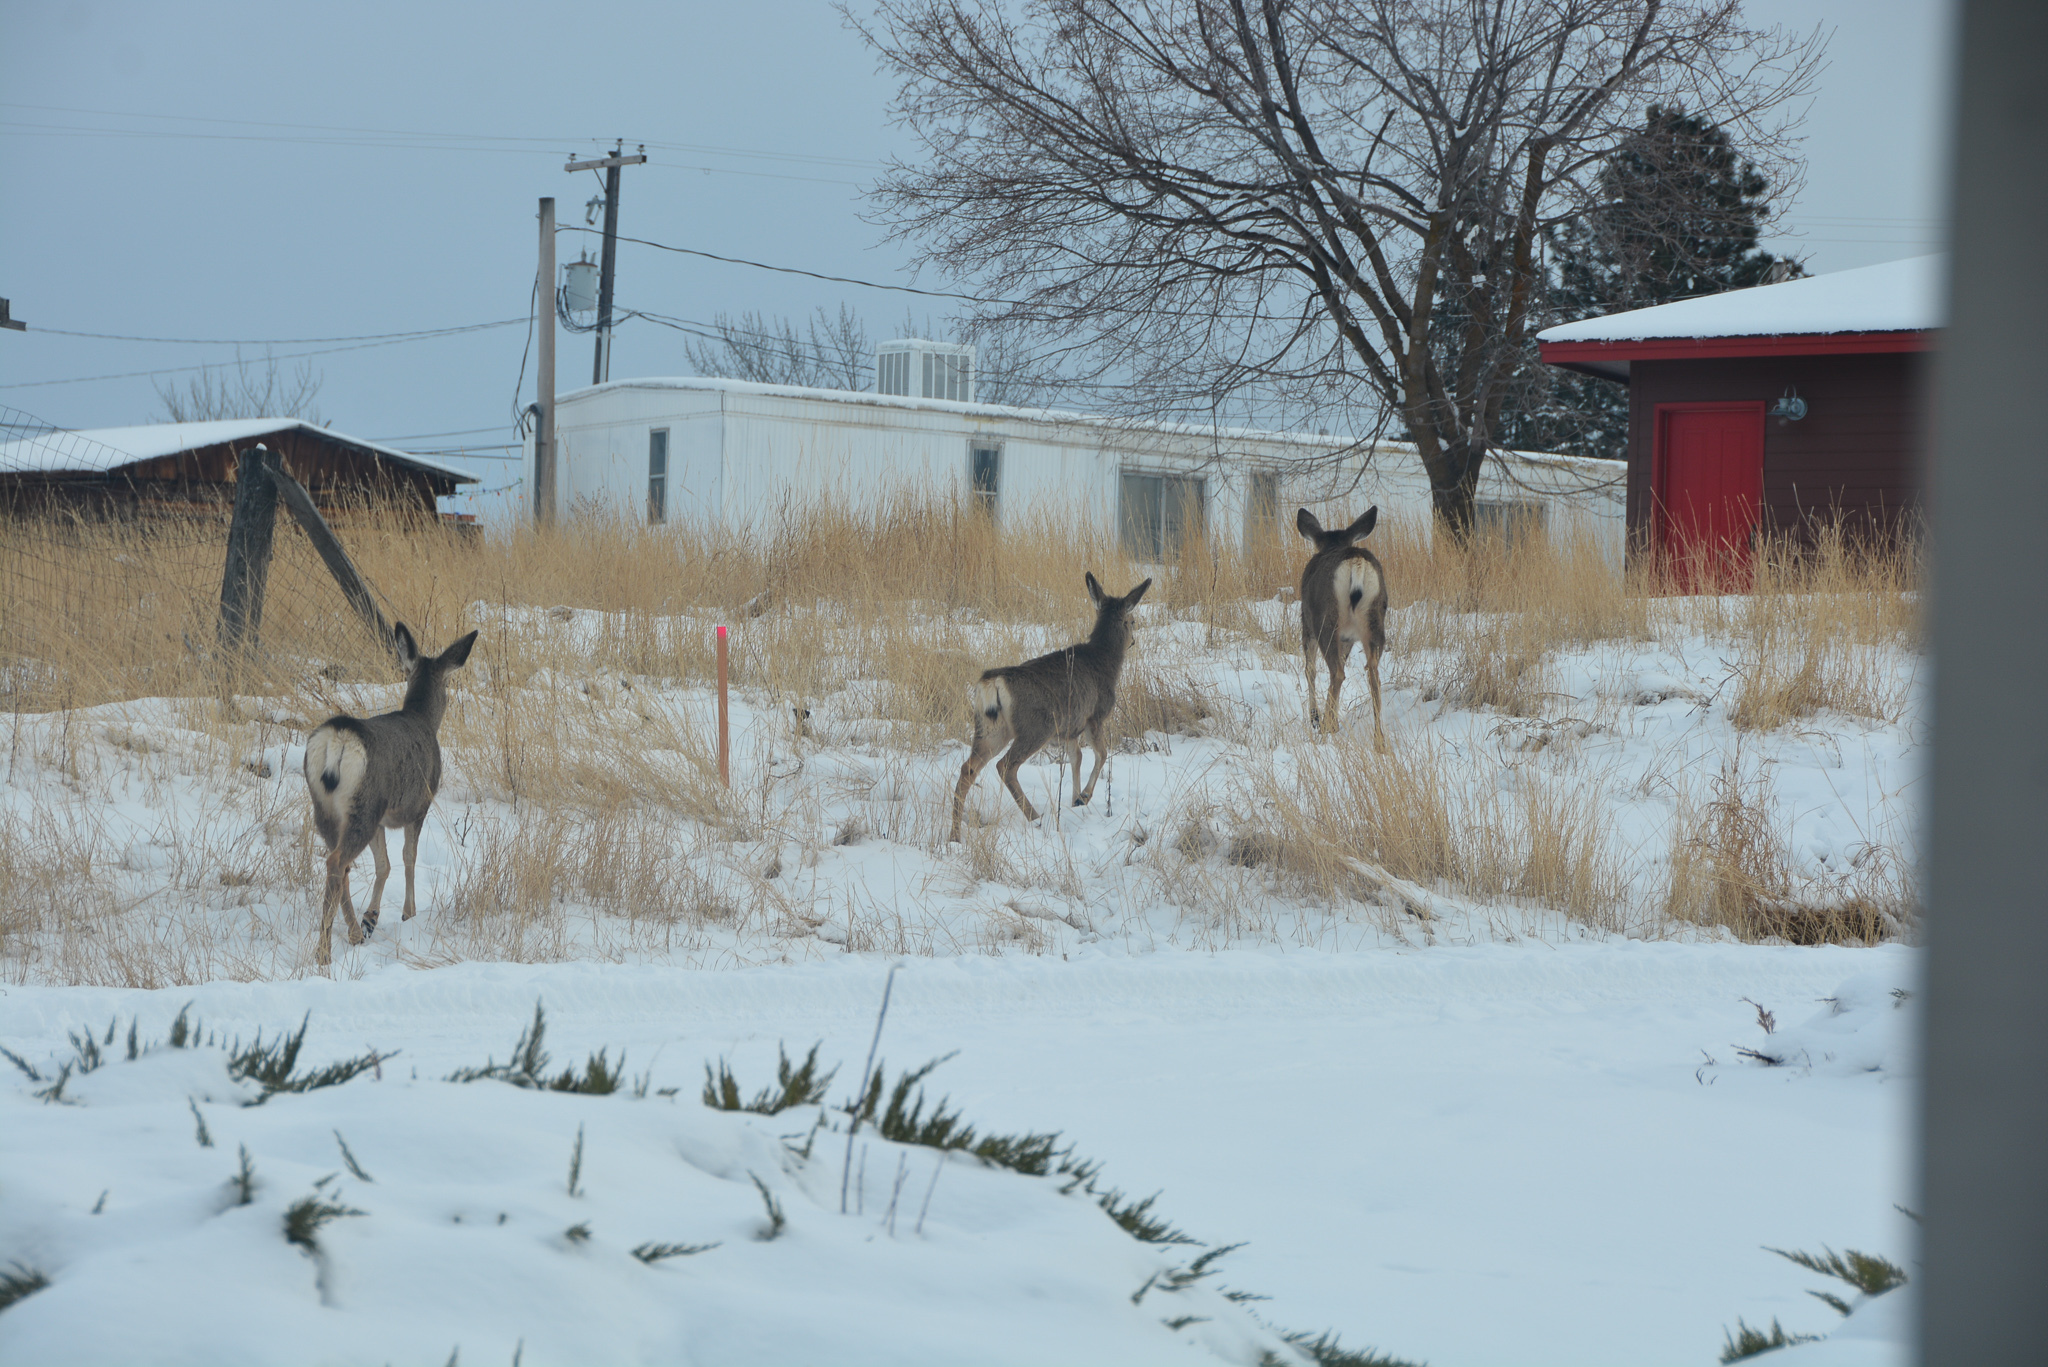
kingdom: Animalia
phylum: Chordata
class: Mammalia
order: Artiodactyla
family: Cervidae
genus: Odocoileus
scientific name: Odocoileus hemionus
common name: Mule deer
